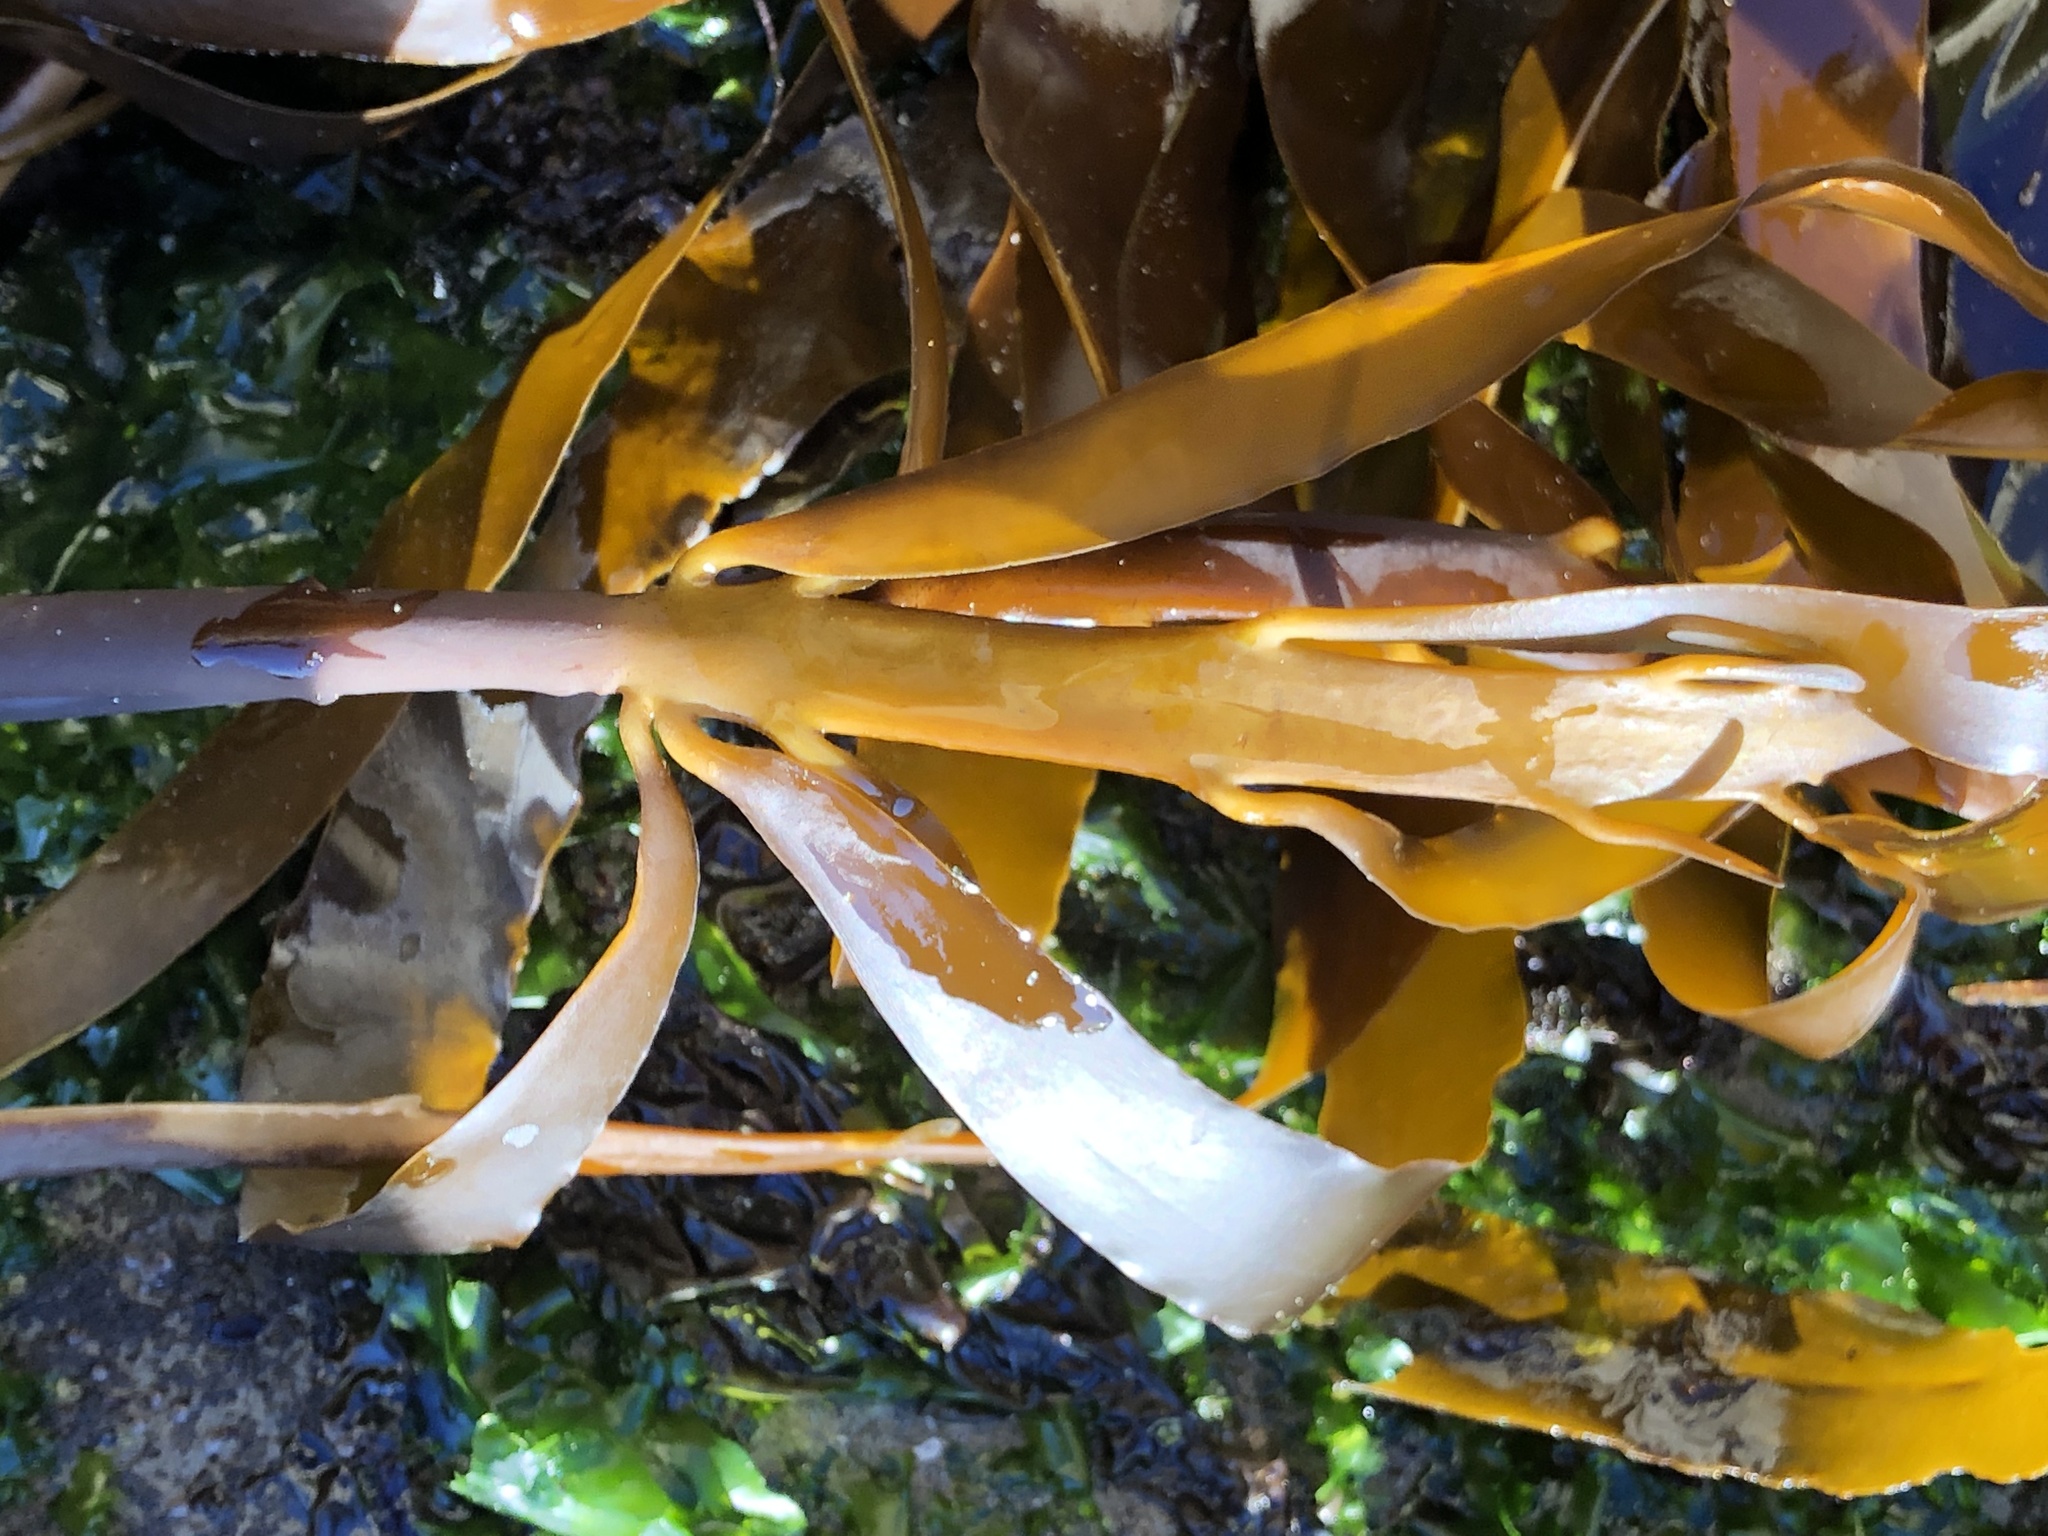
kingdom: Chromista
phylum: Ochrophyta
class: Phaeophyceae
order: Laminariales
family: Alariaceae
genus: Pterygophora
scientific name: Pterygophora californica
